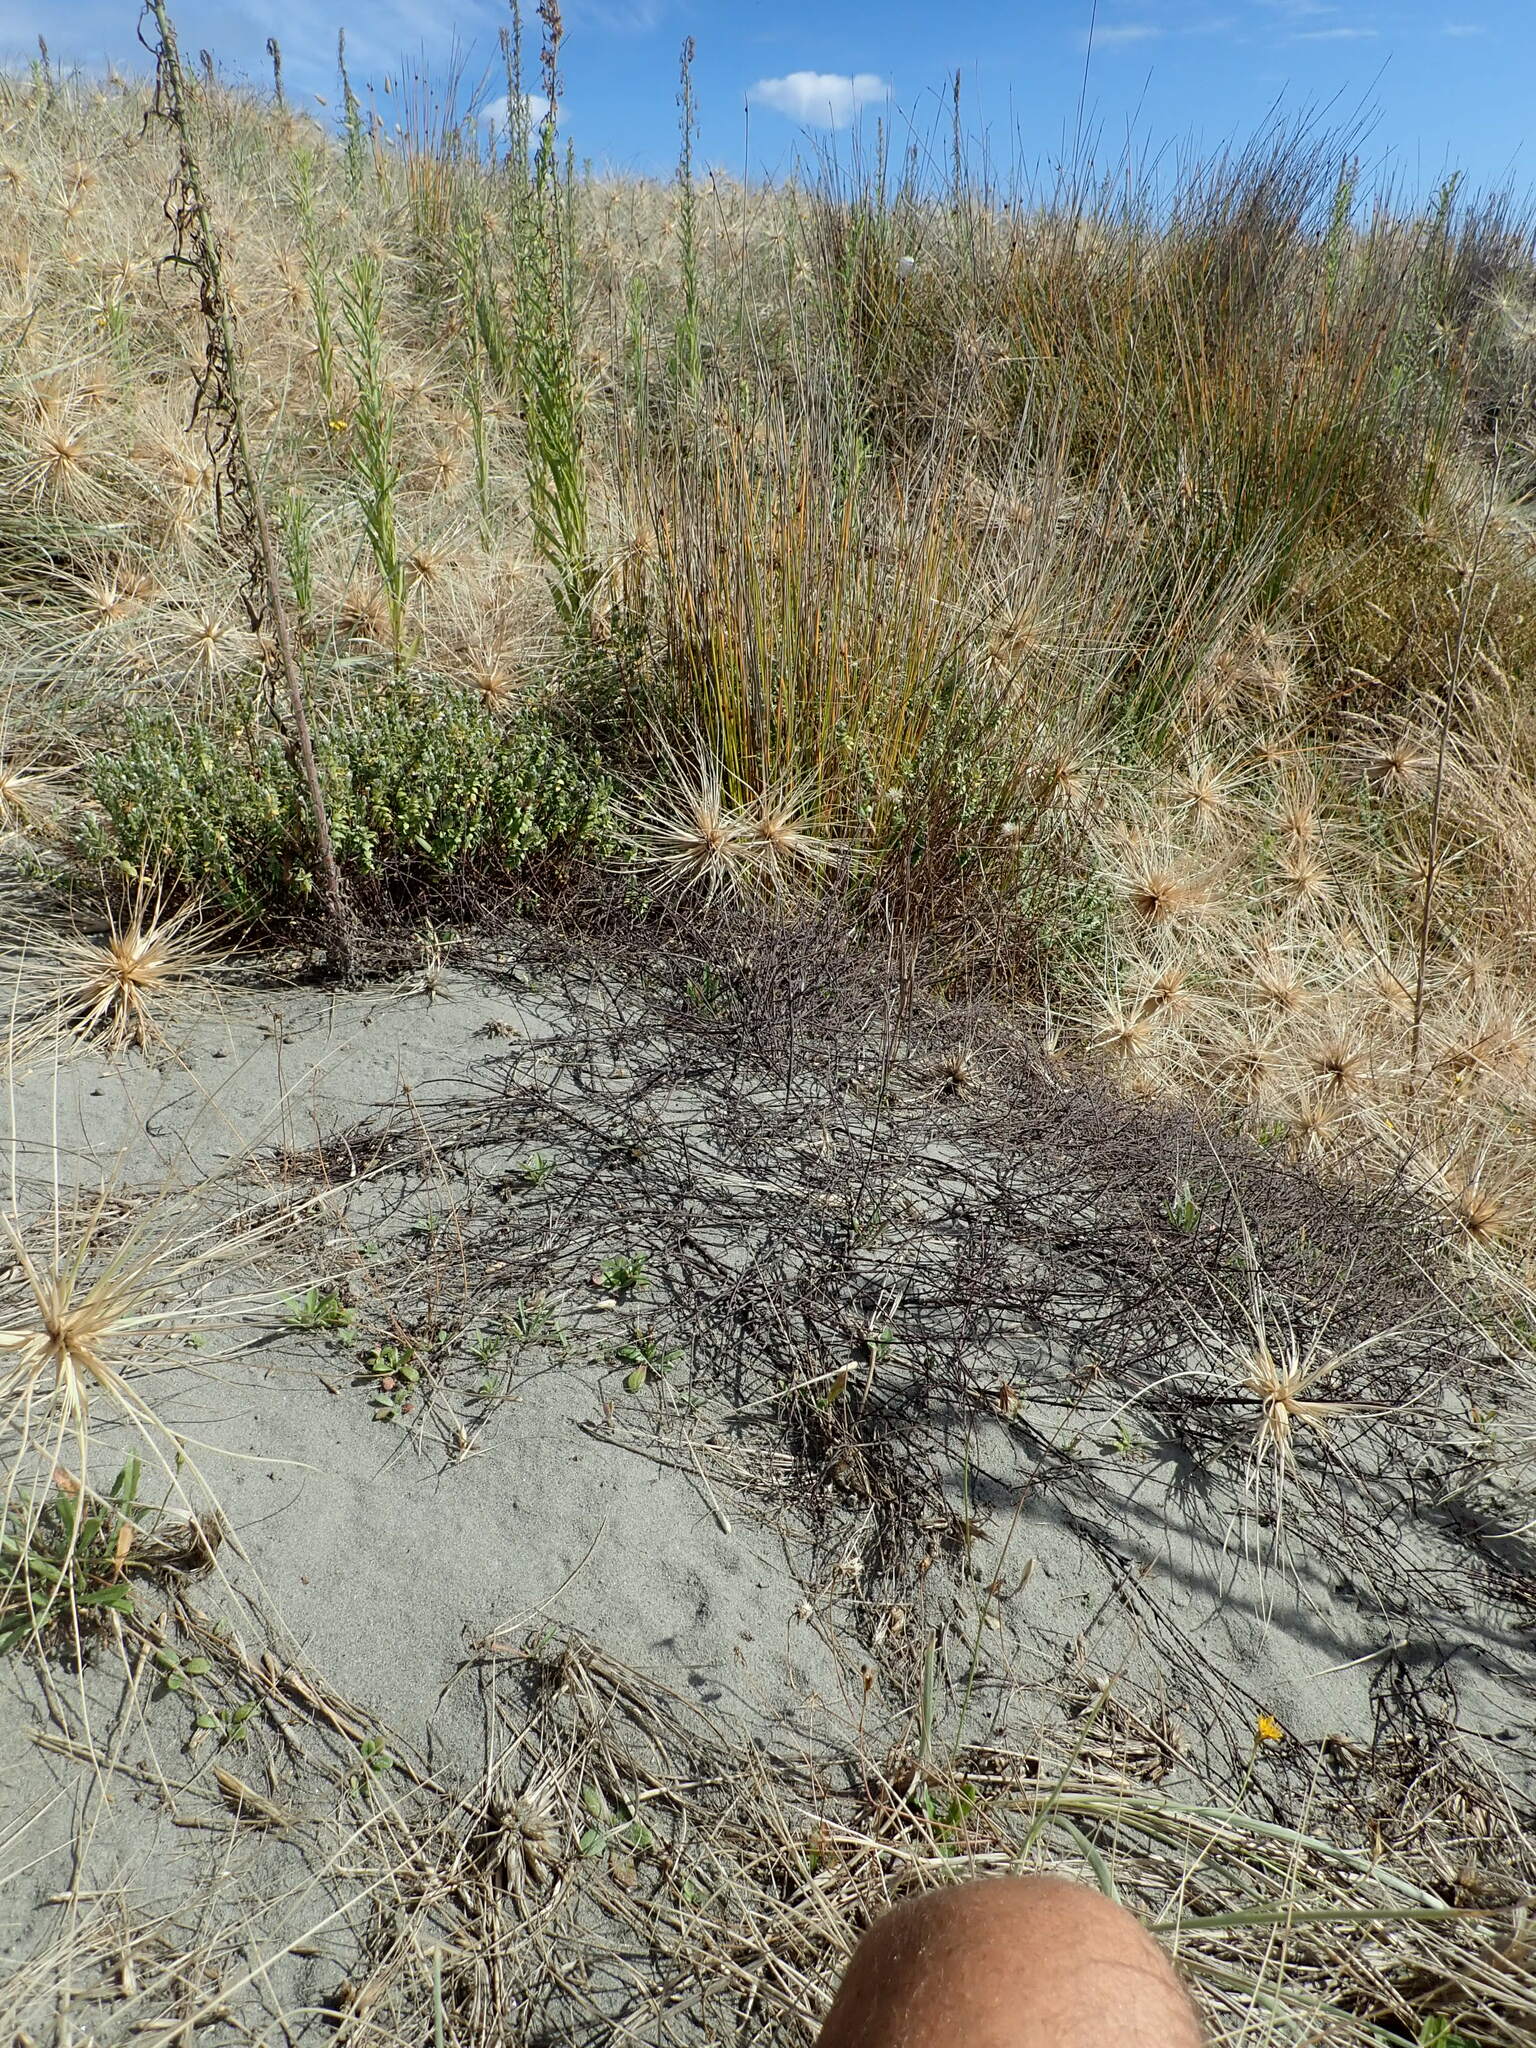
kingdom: Plantae
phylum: Tracheophyta
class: Magnoliopsida
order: Malvales
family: Thymelaeaceae
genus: Pimelea
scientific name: Pimelea villosa
